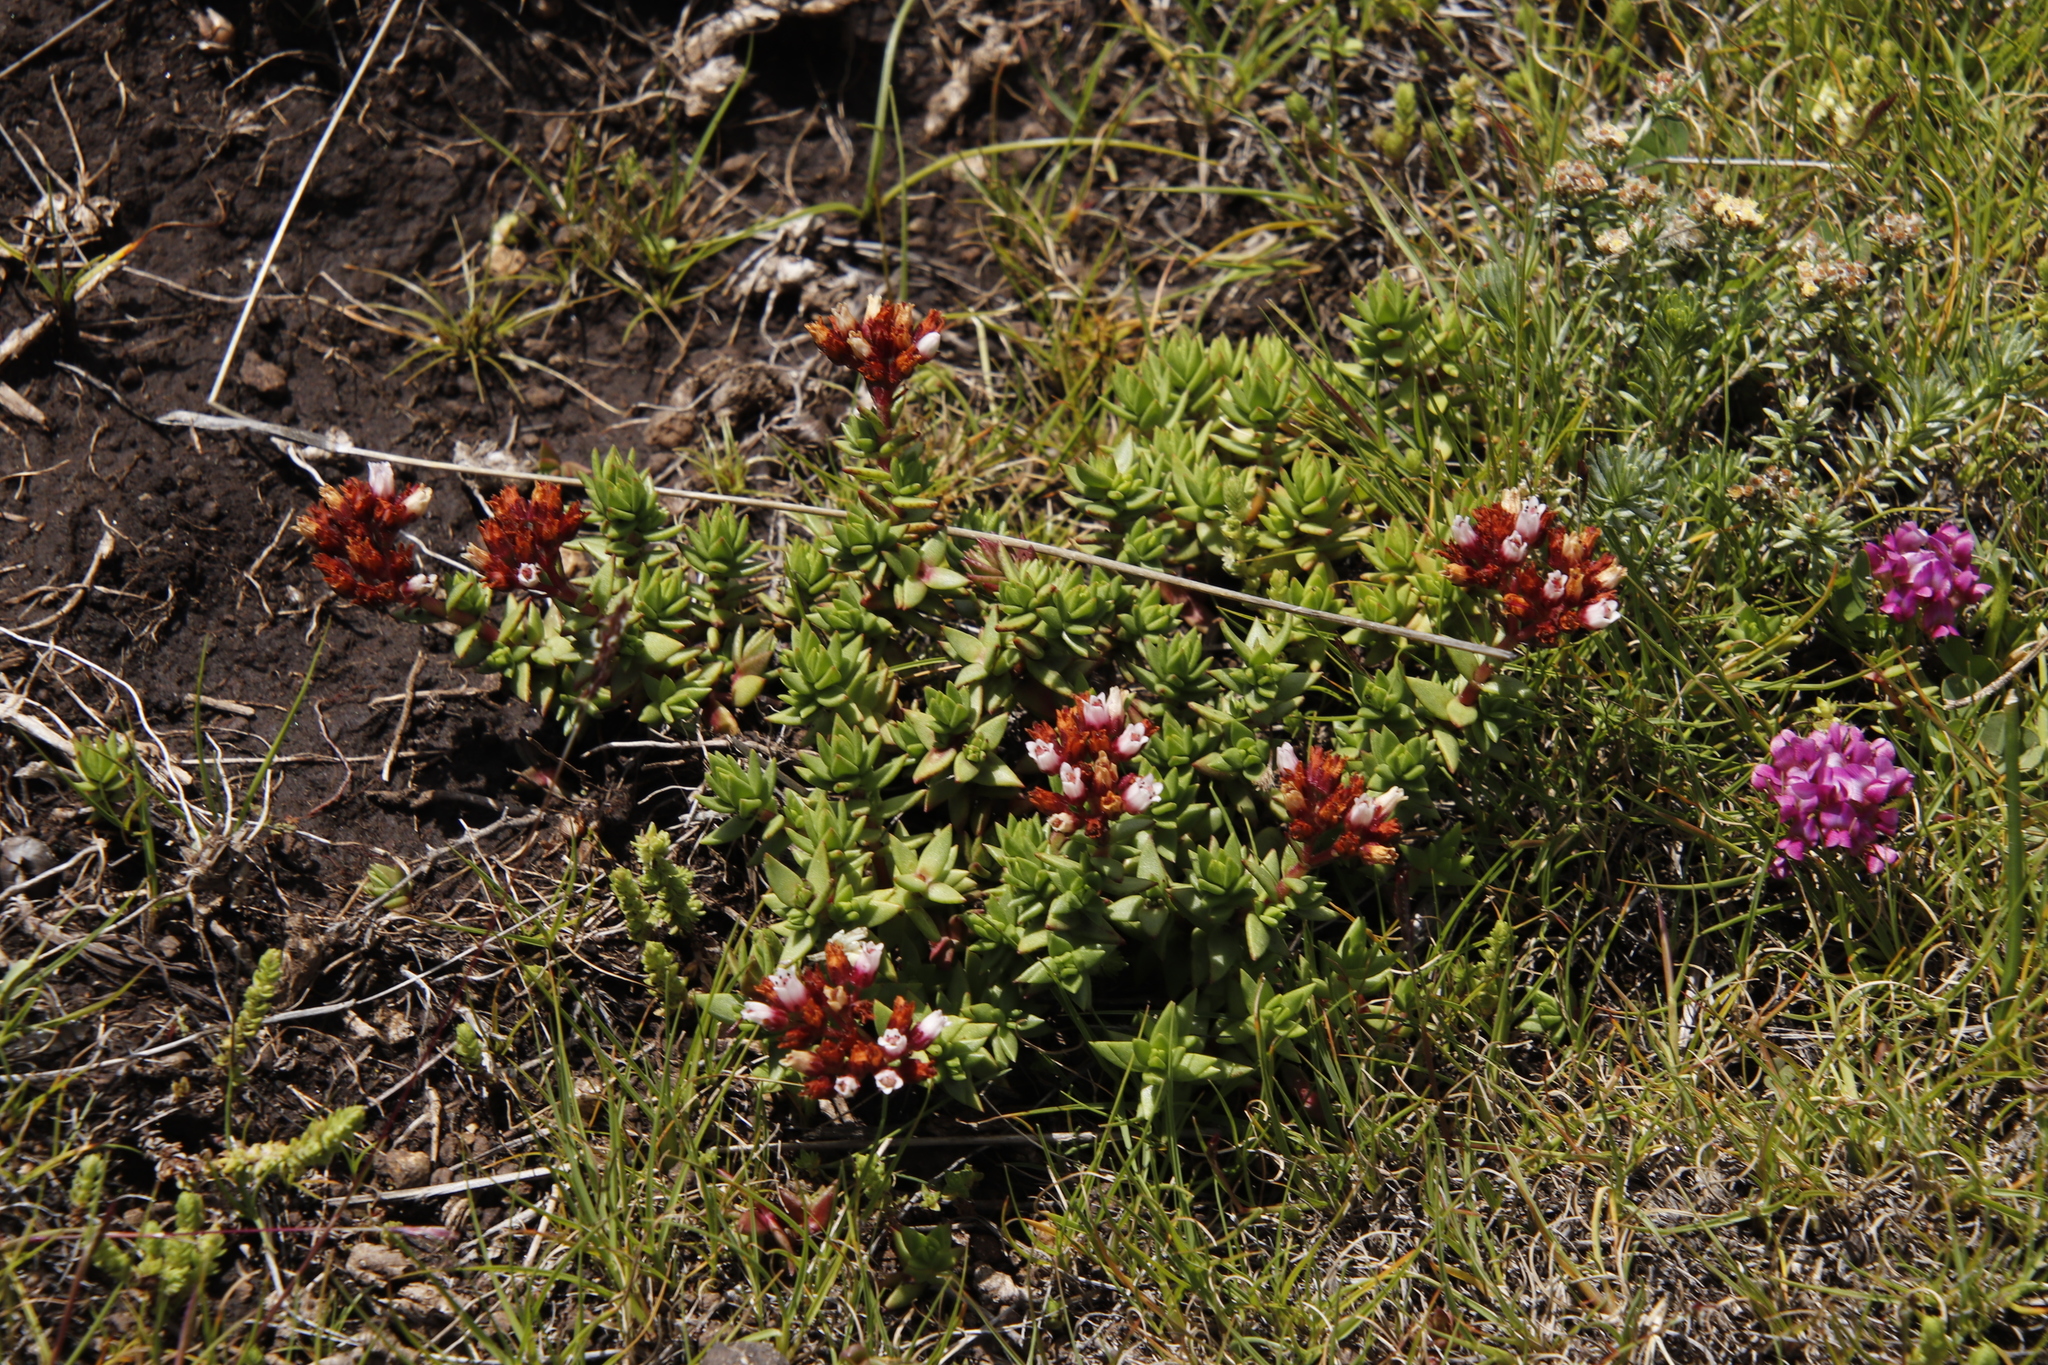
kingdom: Plantae
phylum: Tracheophyta
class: Magnoliopsida
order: Saxifragales
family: Crassulaceae
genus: Crassula
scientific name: Crassula dependens
